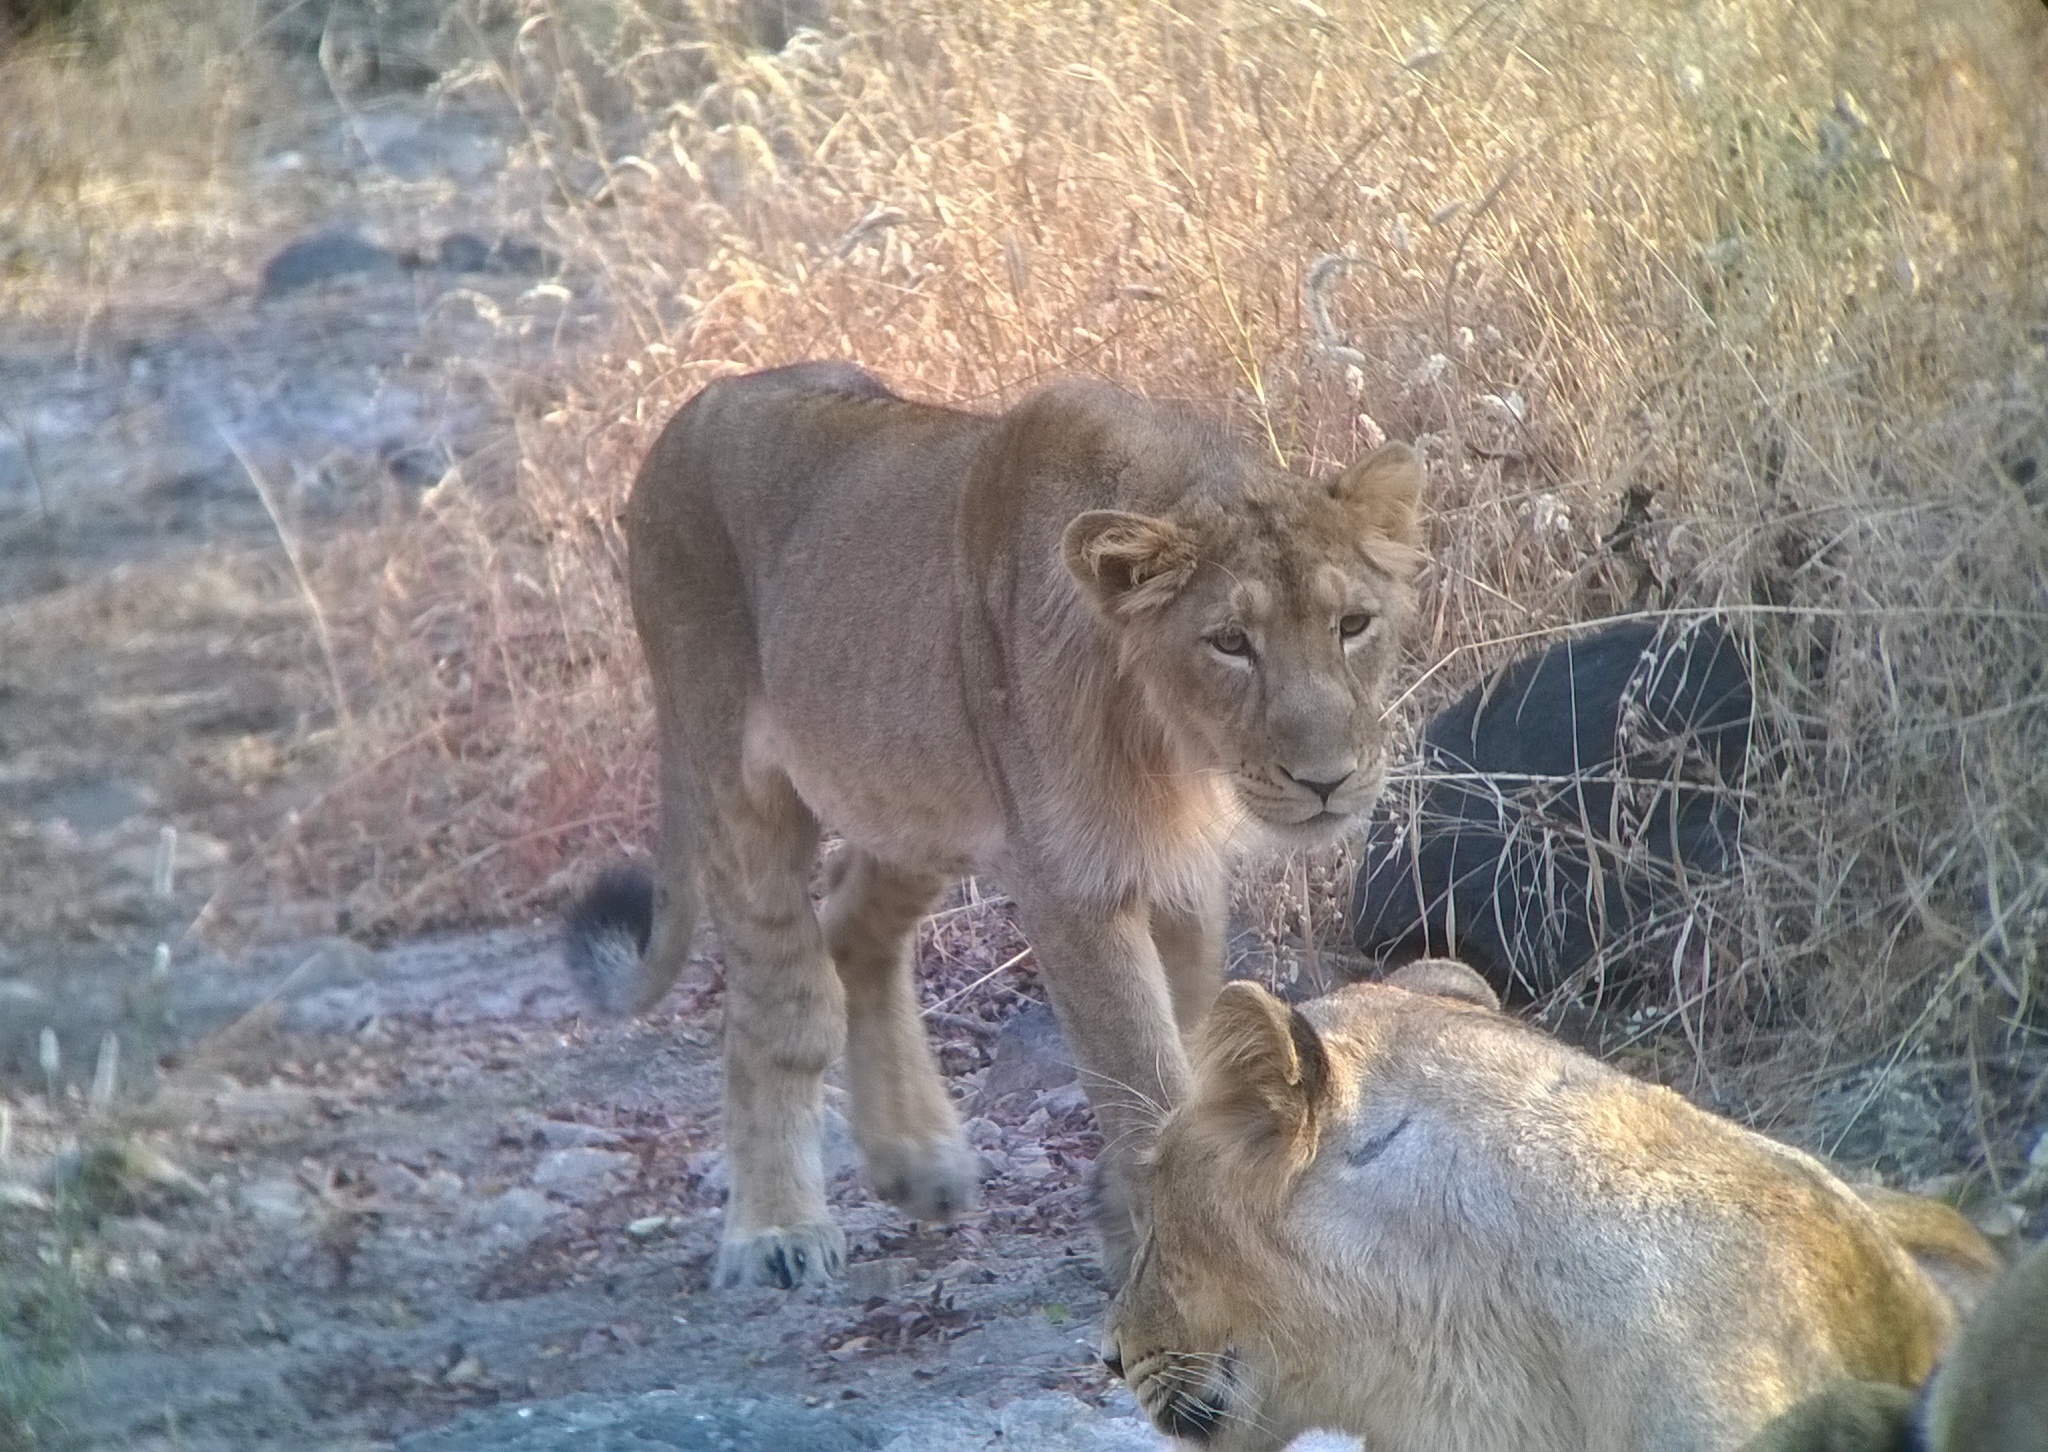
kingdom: Animalia
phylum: Chordata
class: Mammalia
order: Carnivora
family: Felidae
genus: Panthera
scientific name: Panthera leo
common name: Lion
